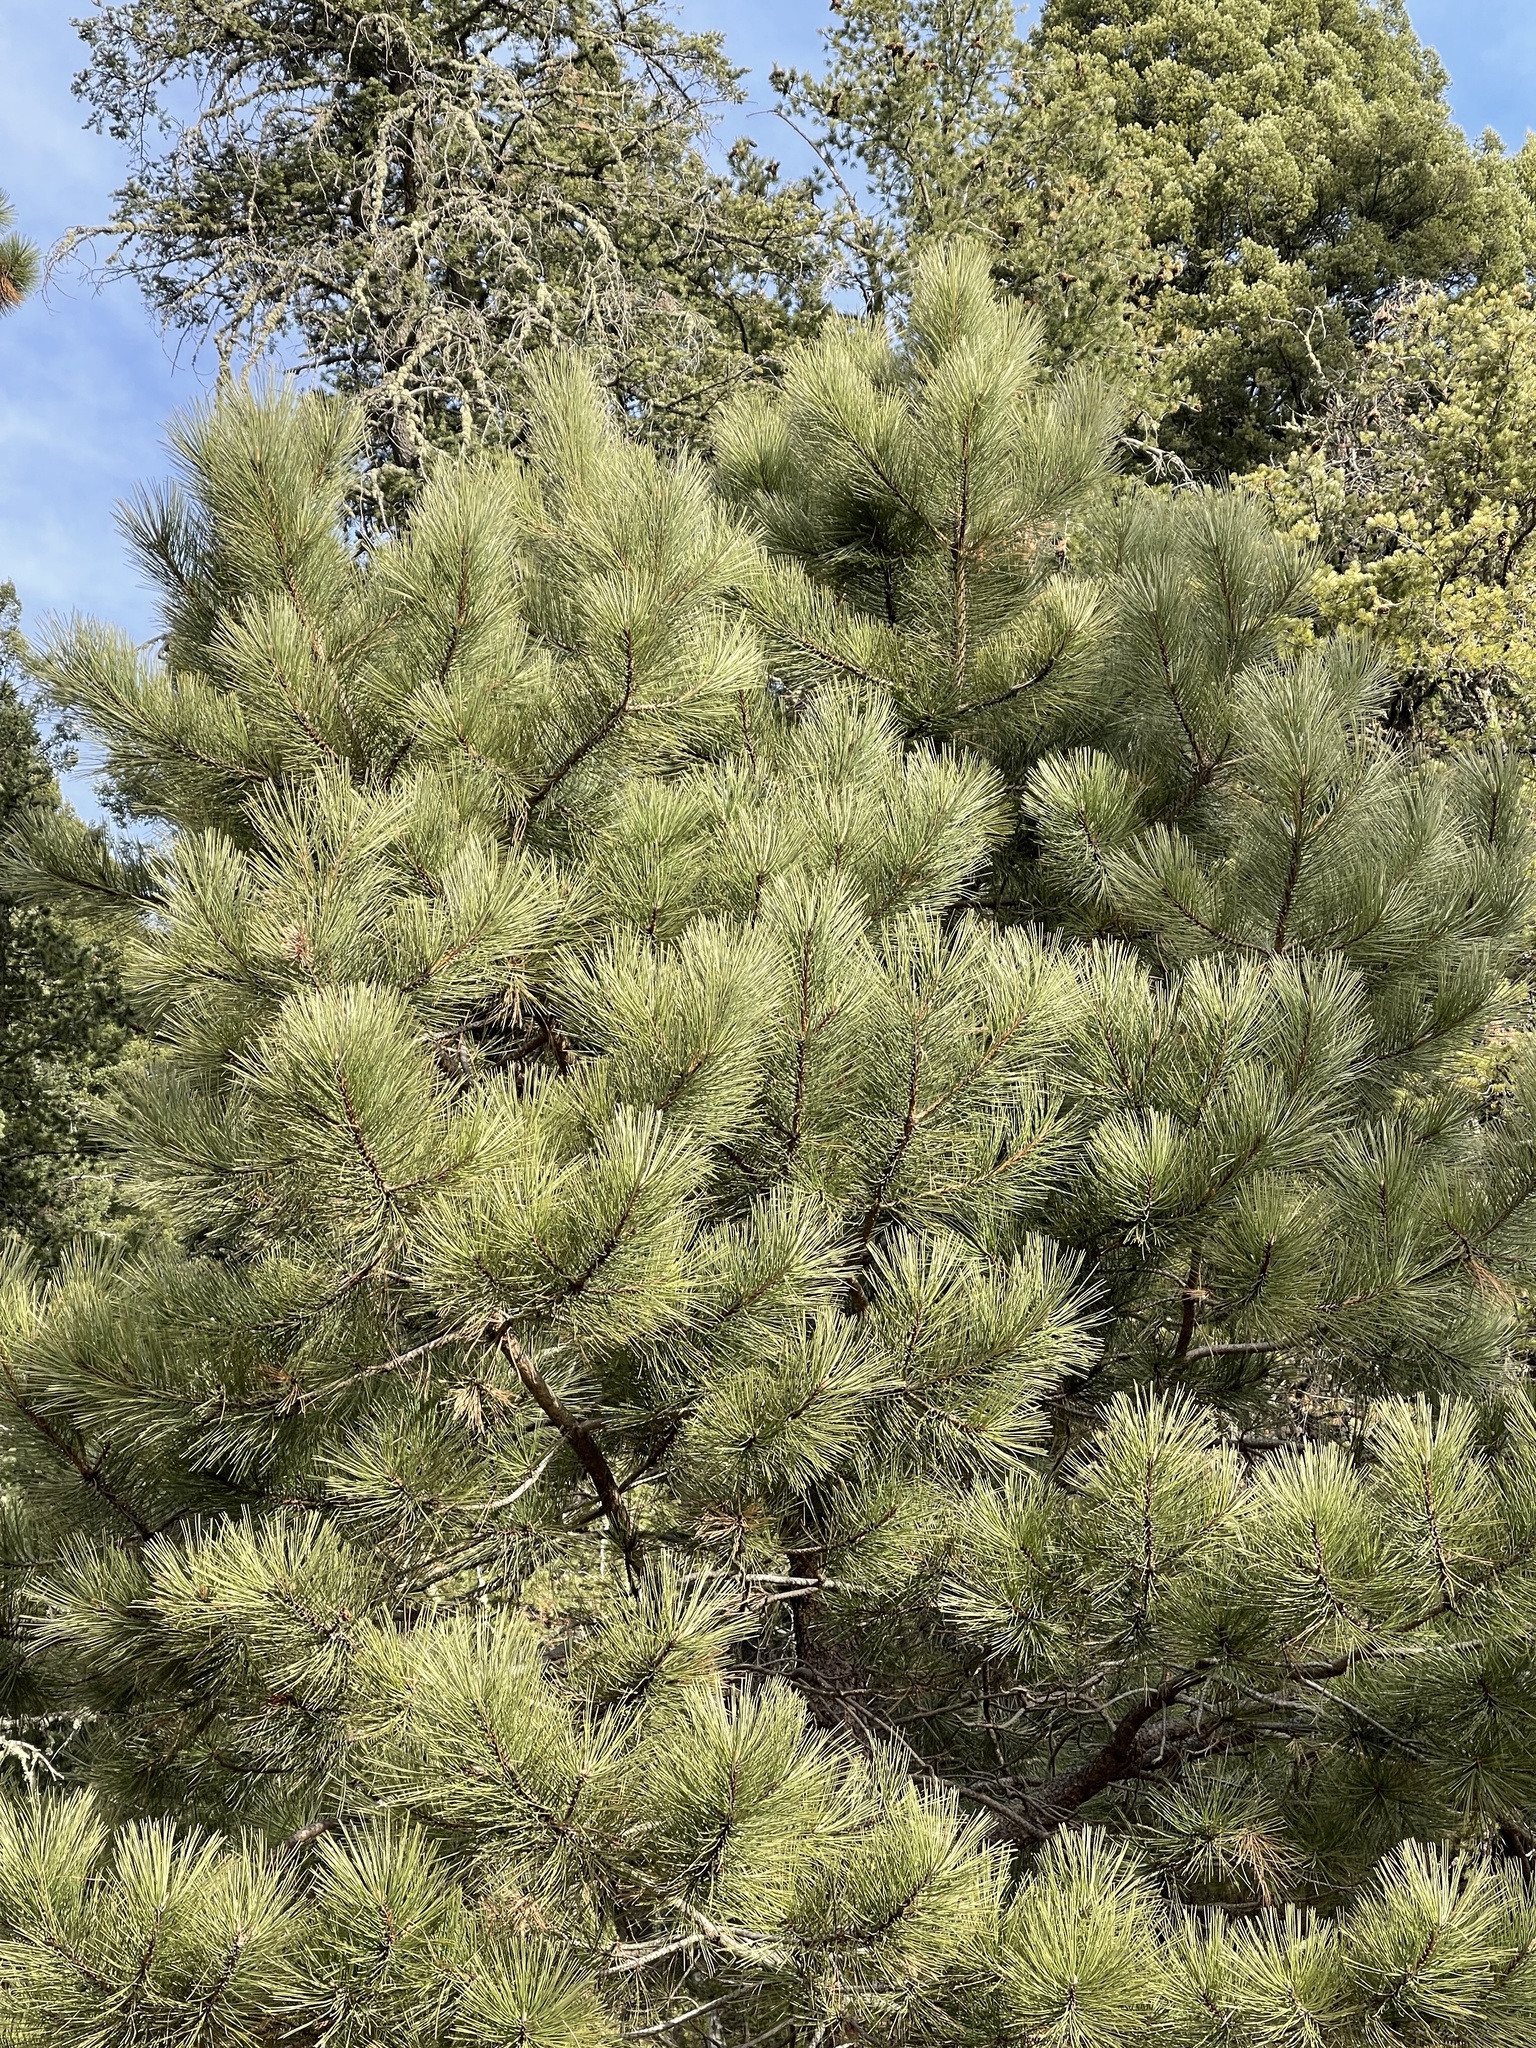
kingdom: Plantae
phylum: Tracheophyta
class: Pinopsida
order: Pinales
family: Pinaceae
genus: Pinus
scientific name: Pinus ponderosa
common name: Western yellow-pine
